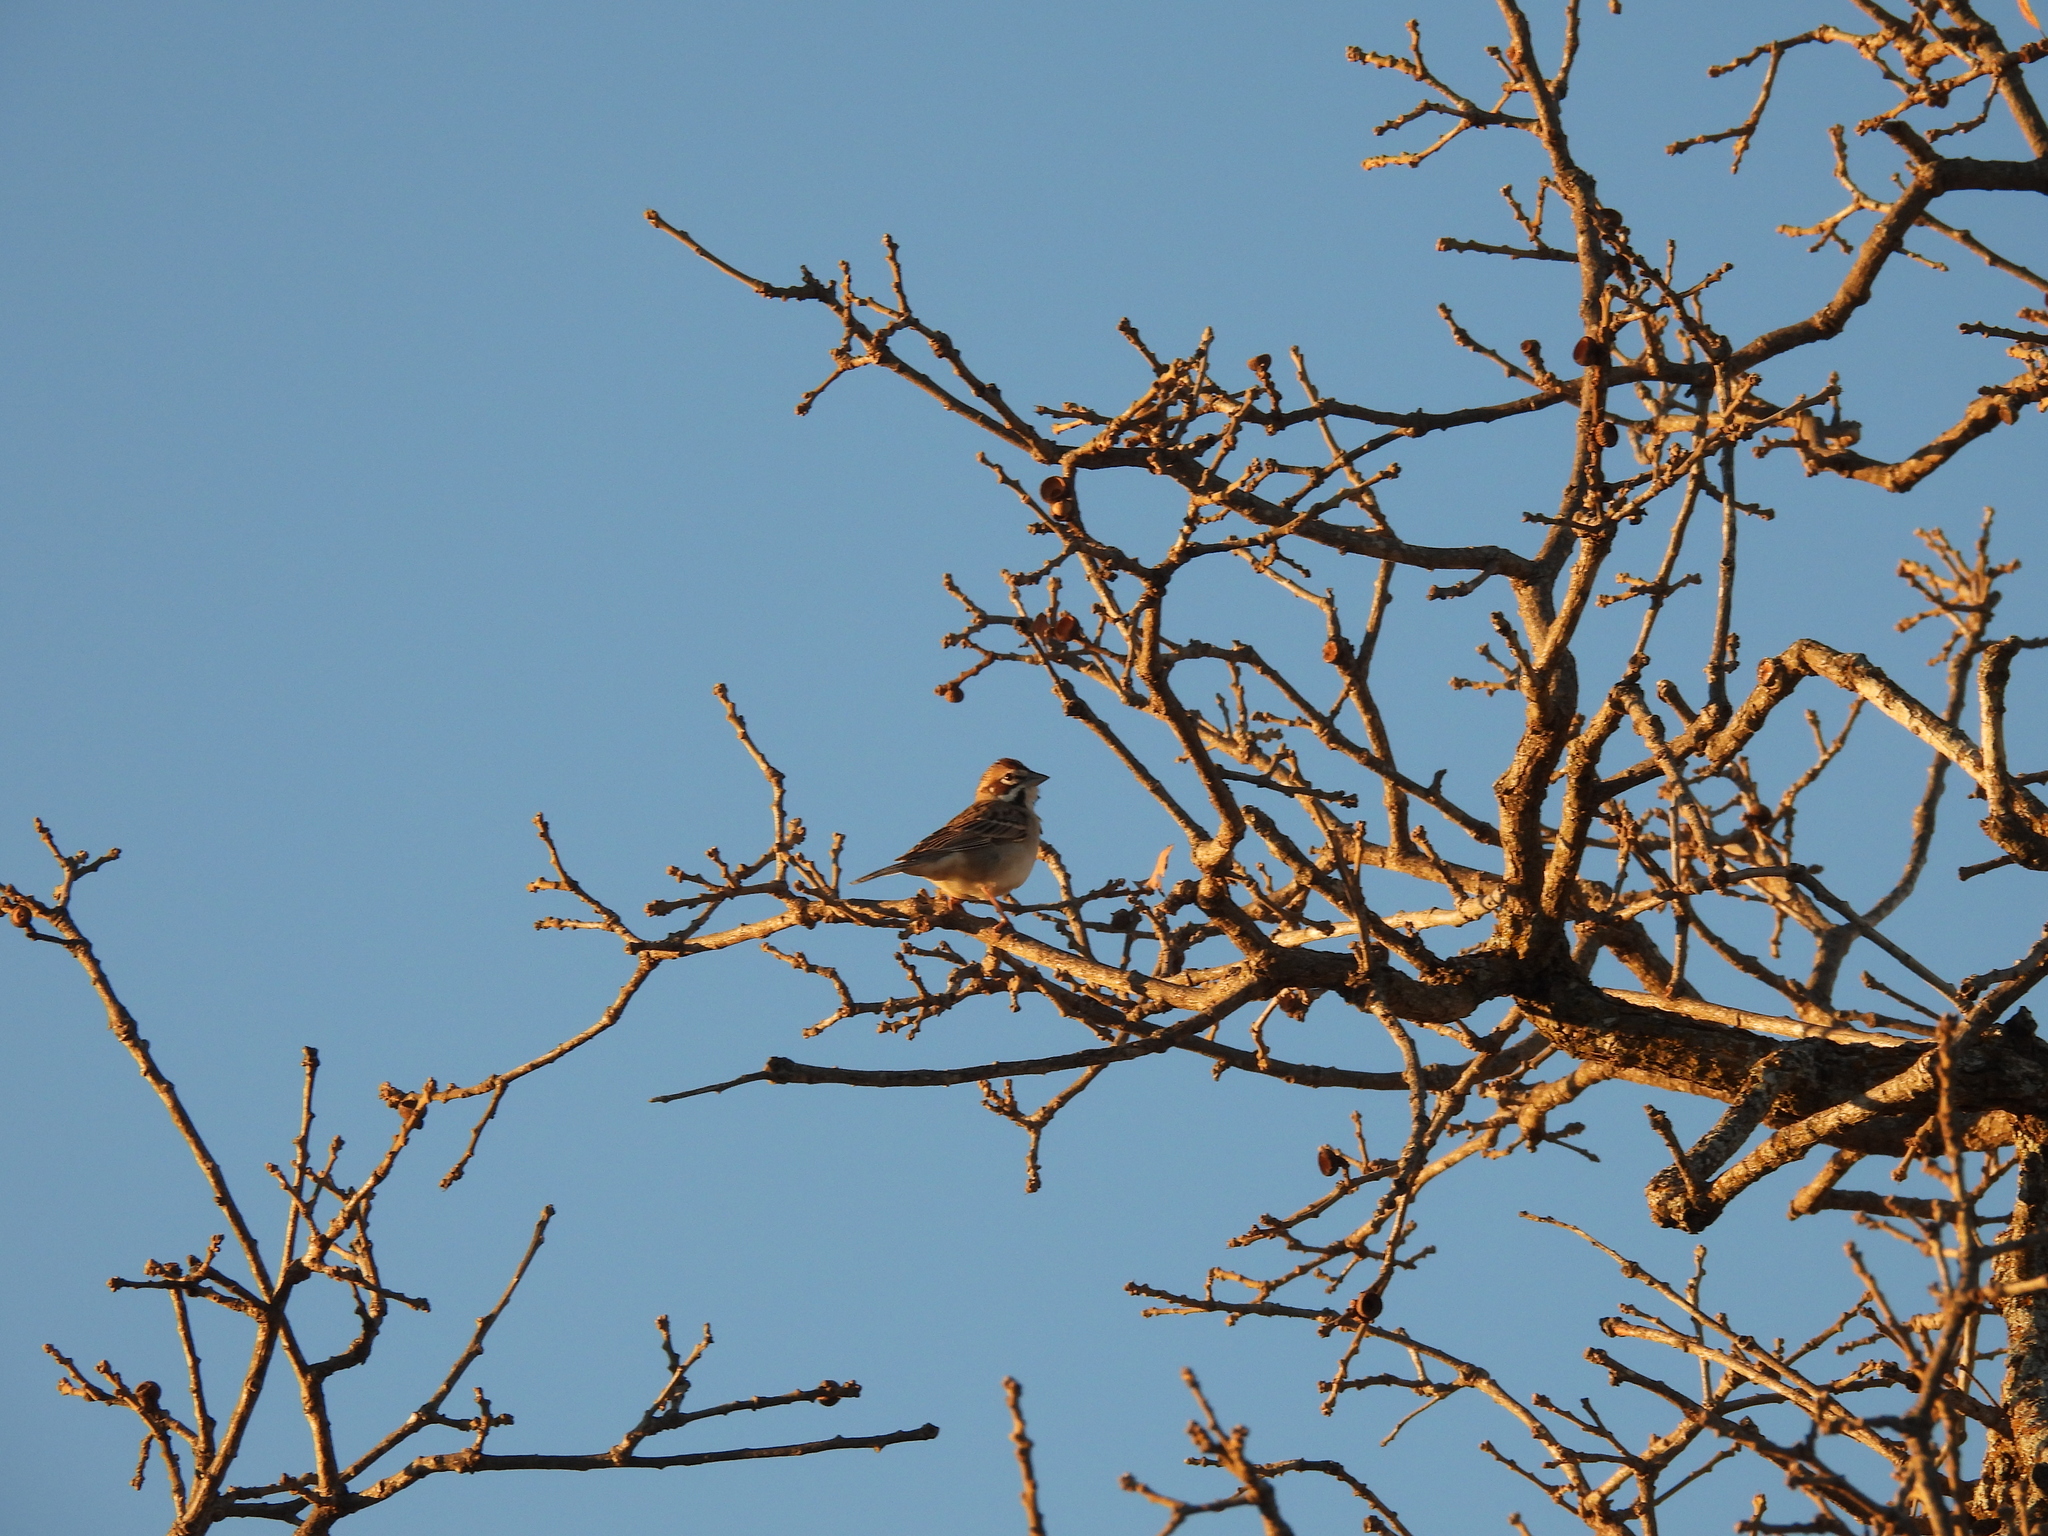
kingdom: Animalia
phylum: Chordata
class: Aves
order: Passeriformes
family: Passerellidae
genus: Chondestes
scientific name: Chondestes grammacus
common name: Lark sparrow
